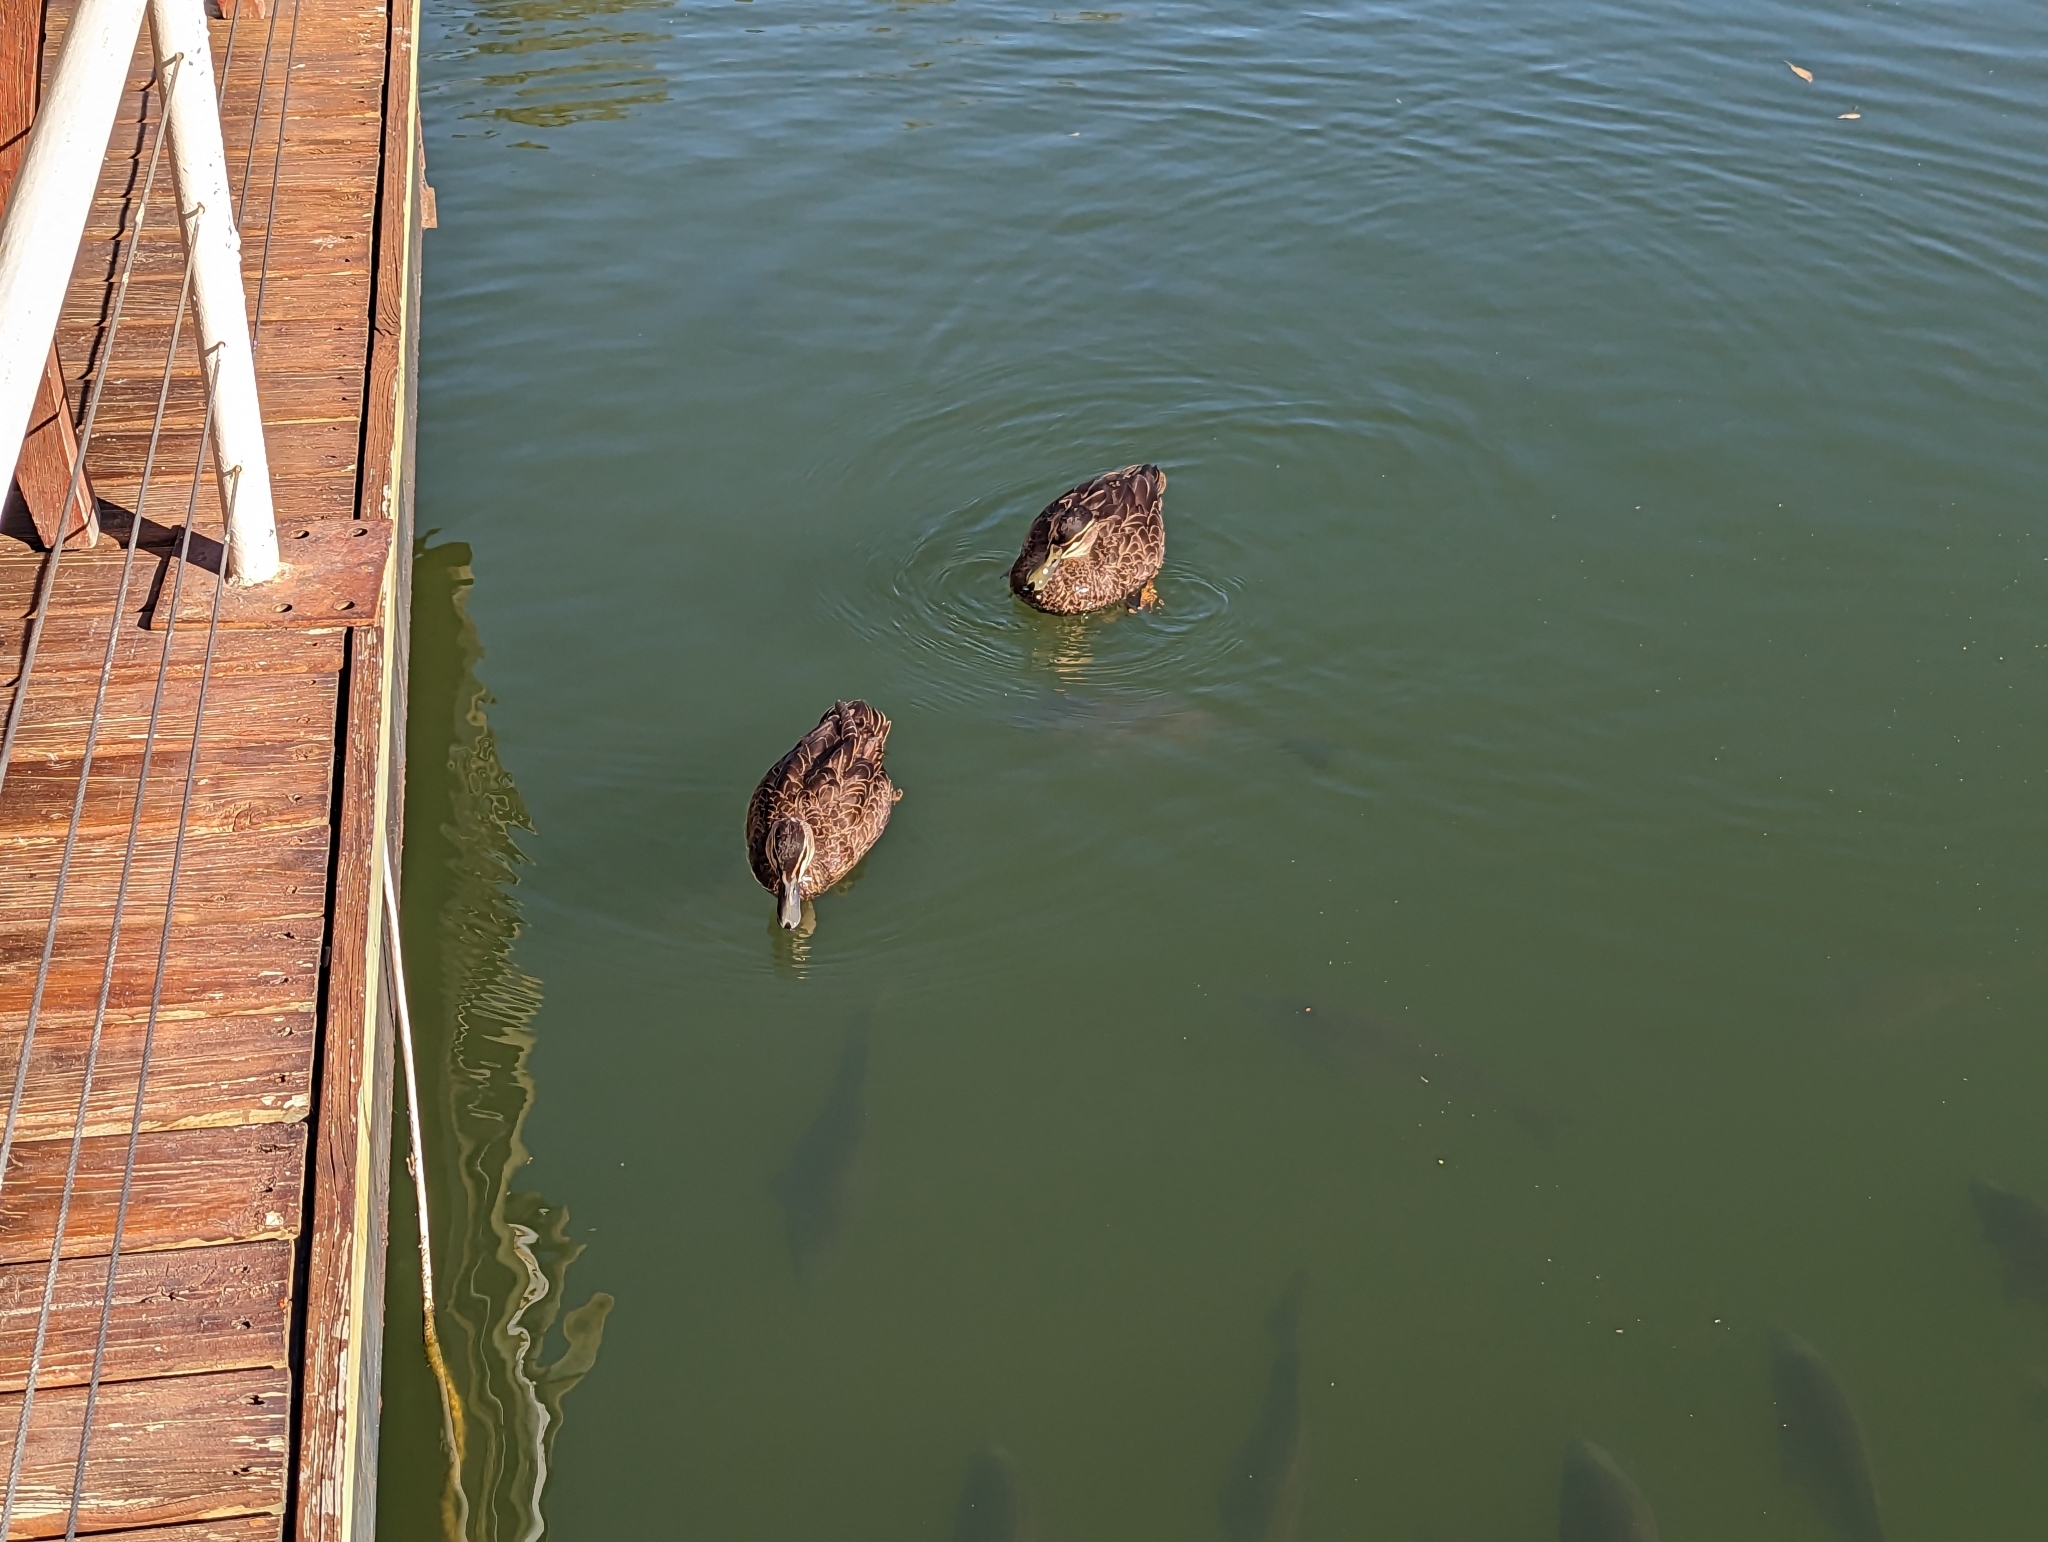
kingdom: Animalia
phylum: Chordata
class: Aves
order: Anseriformes
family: Anatidae
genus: Anas
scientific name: Anas superciliosa
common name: Pacific black duck
